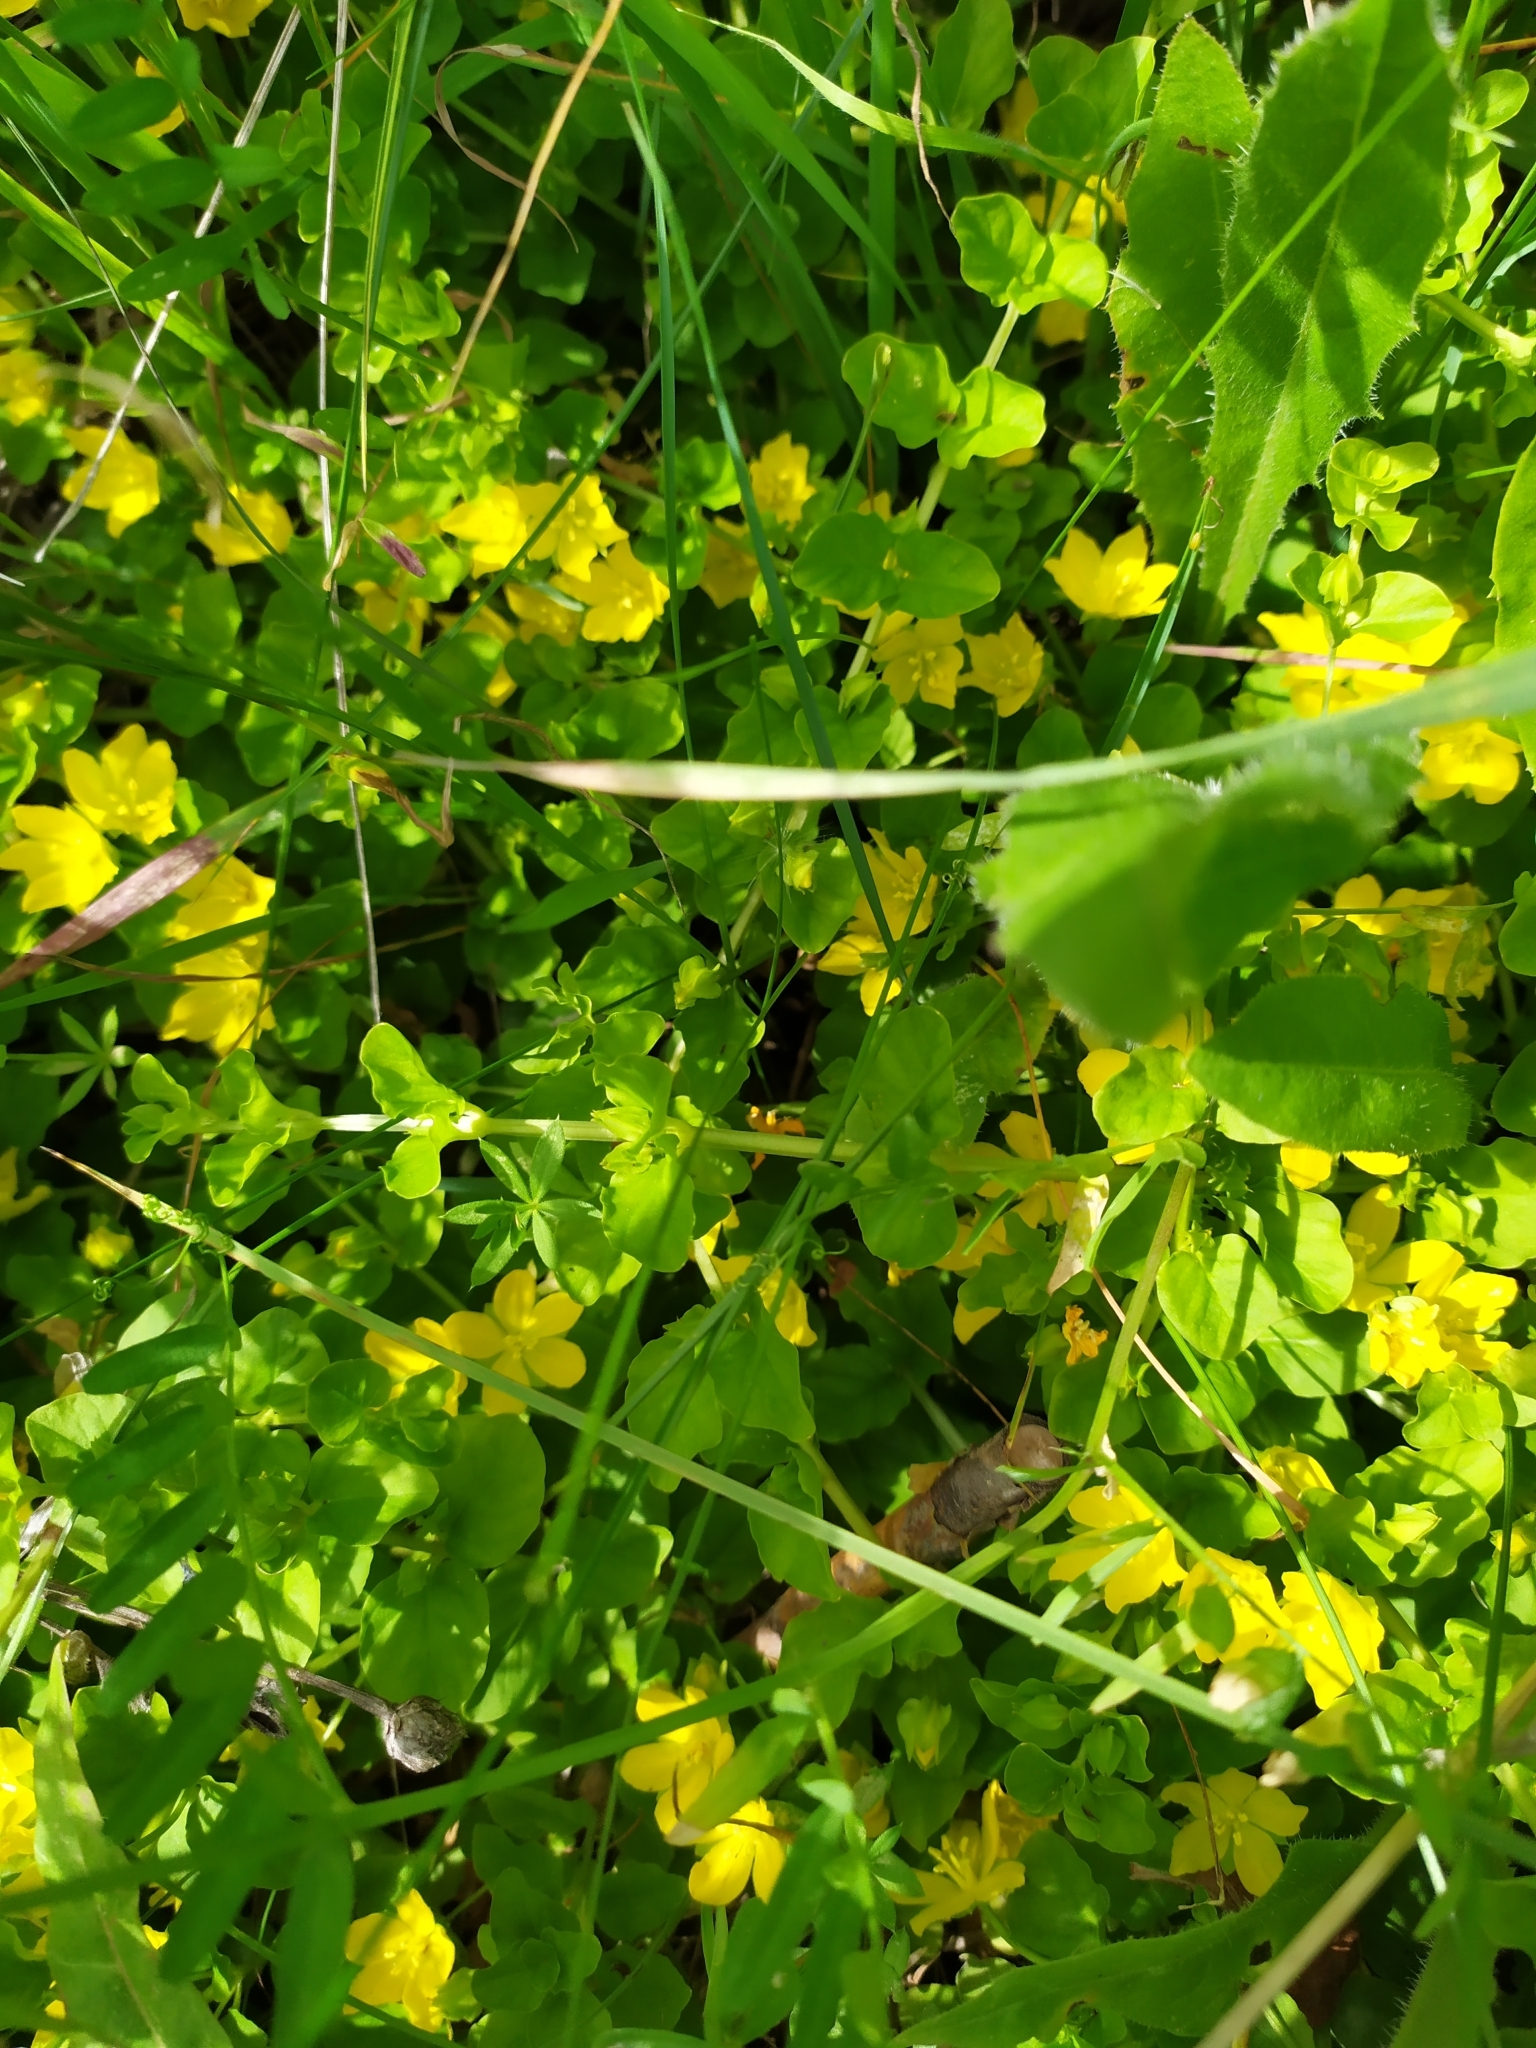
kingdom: Plantae
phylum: Tracheophyta
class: Magnoliopsida
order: Ericales
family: Primulaceae
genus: Lysimachia
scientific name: Lysimachia nummularia
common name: Moneywort
